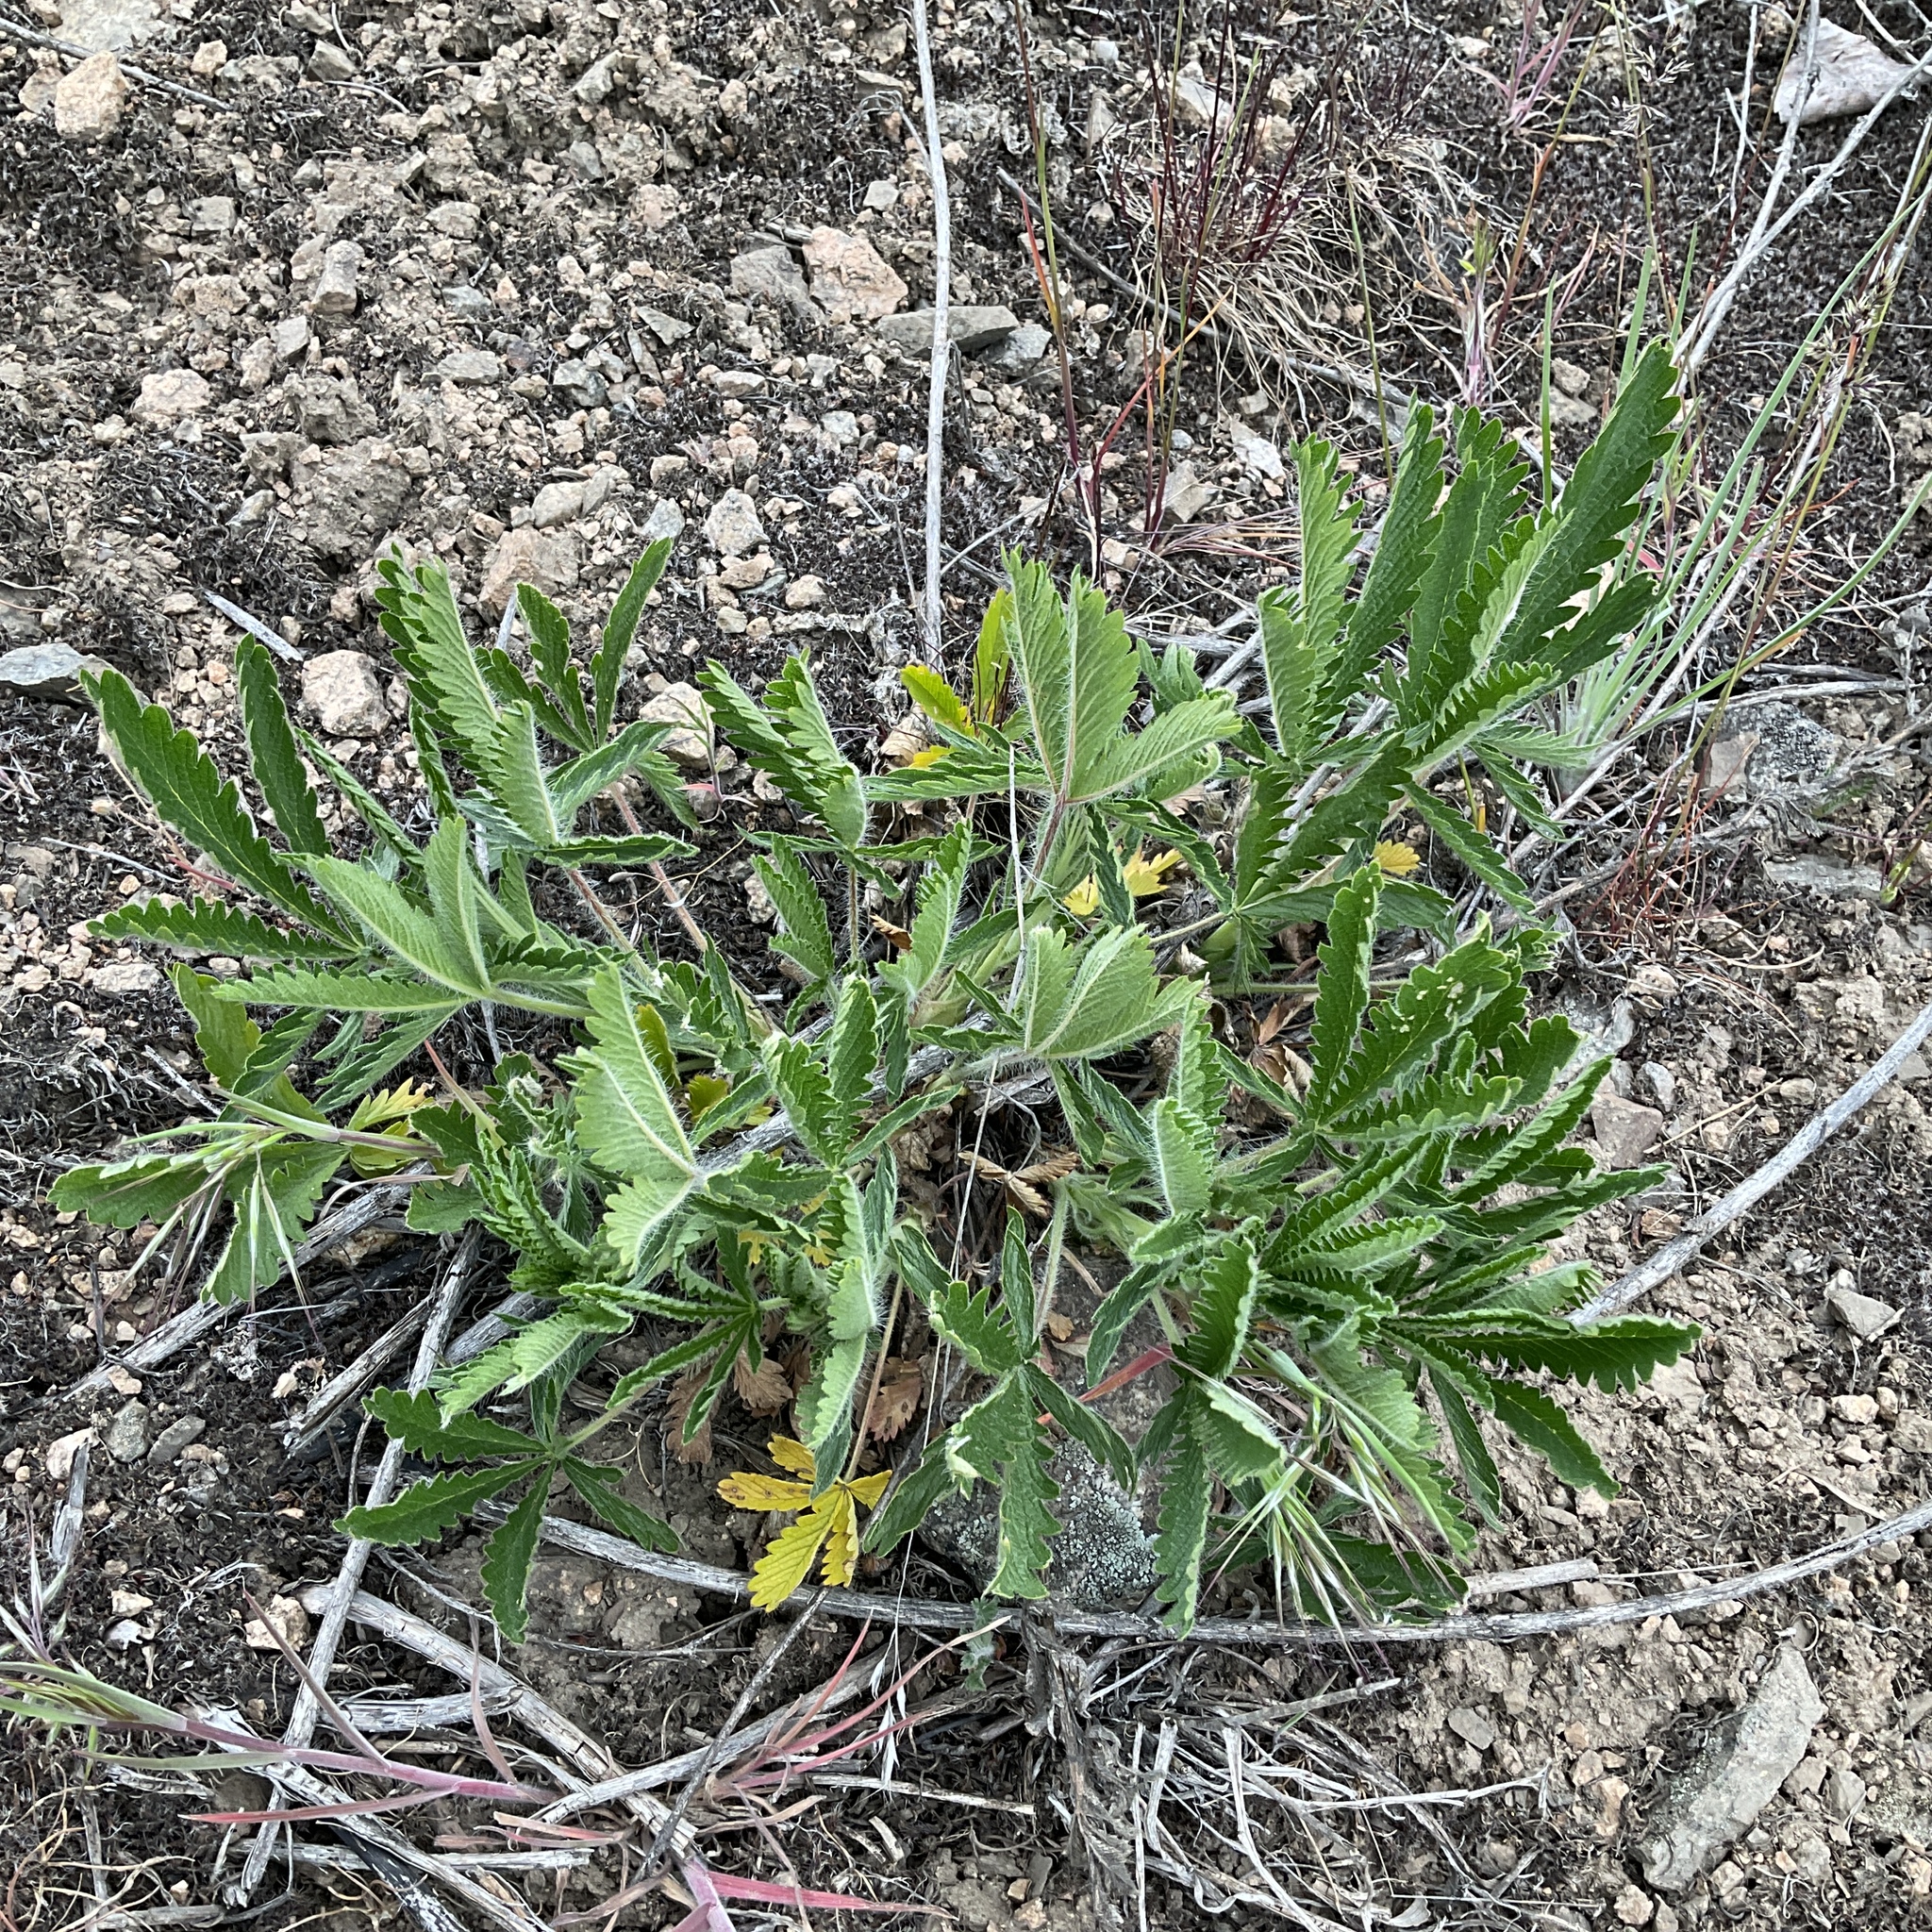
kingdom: Plantae
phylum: Tracheophyta
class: Magnoliopsida
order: Rosales
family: Rosaceae
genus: Potentilla
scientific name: Potentilla recta
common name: Sulphur cinquefoil
